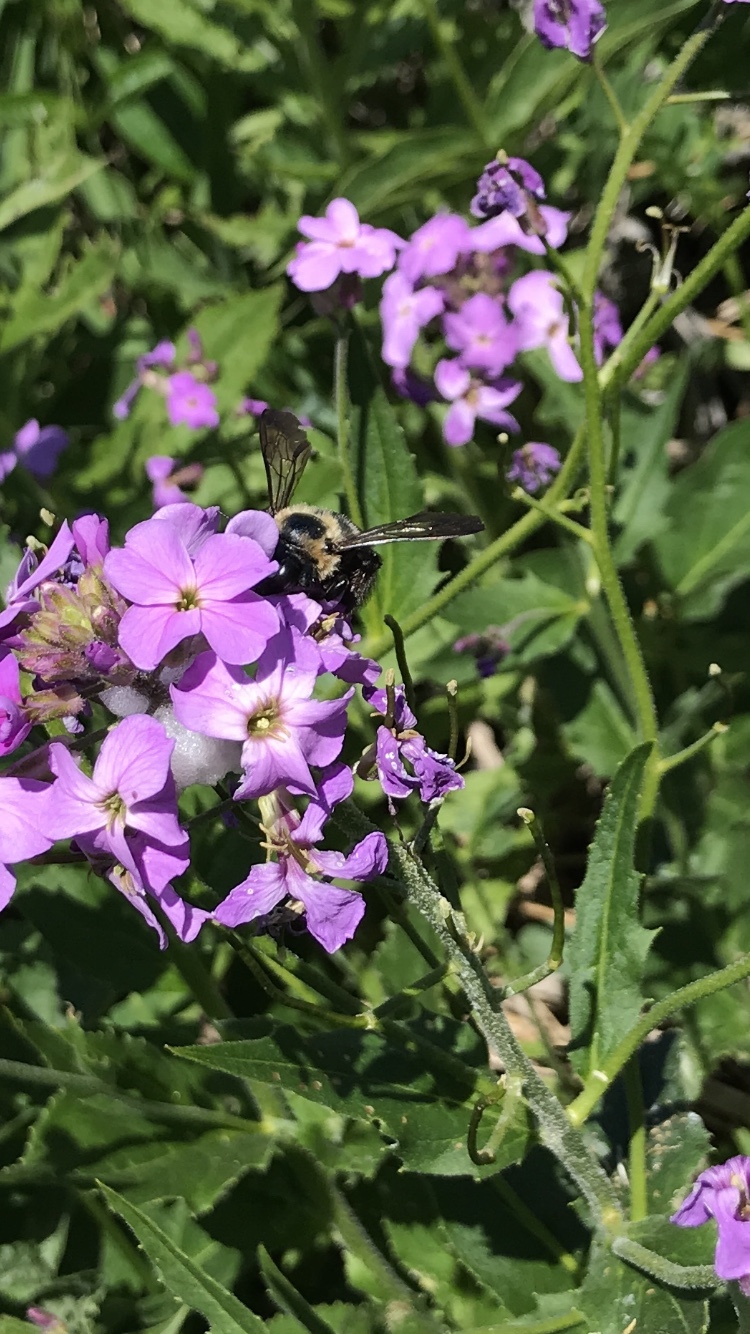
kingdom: Animalia
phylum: Arthropoda
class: Insecta
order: Hymenoptera
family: Apidae
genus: Xylocopa
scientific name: Xylocopa virginica
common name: Carpenter bee
